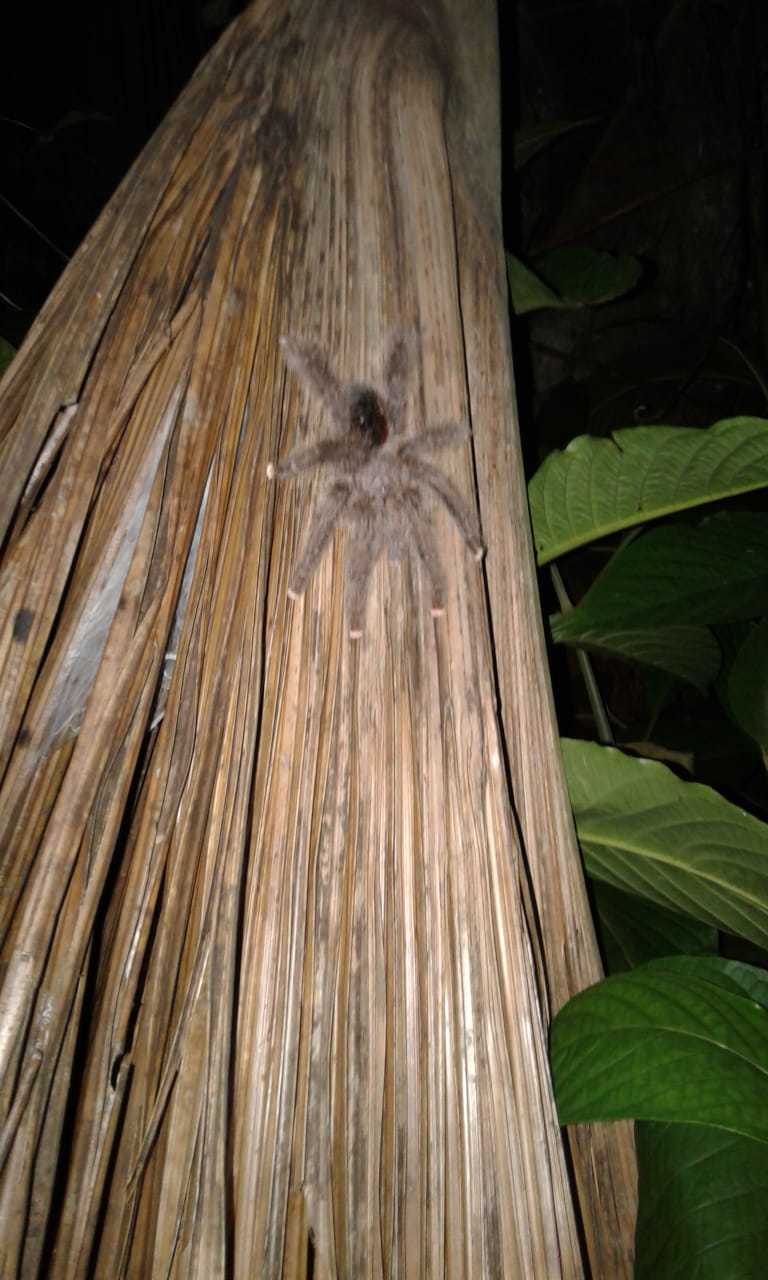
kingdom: Animalia
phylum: Arthropoda
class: Arachnida
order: Araneae
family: Theraphosidae
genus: Avicularia
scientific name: Avicularia juruensis
